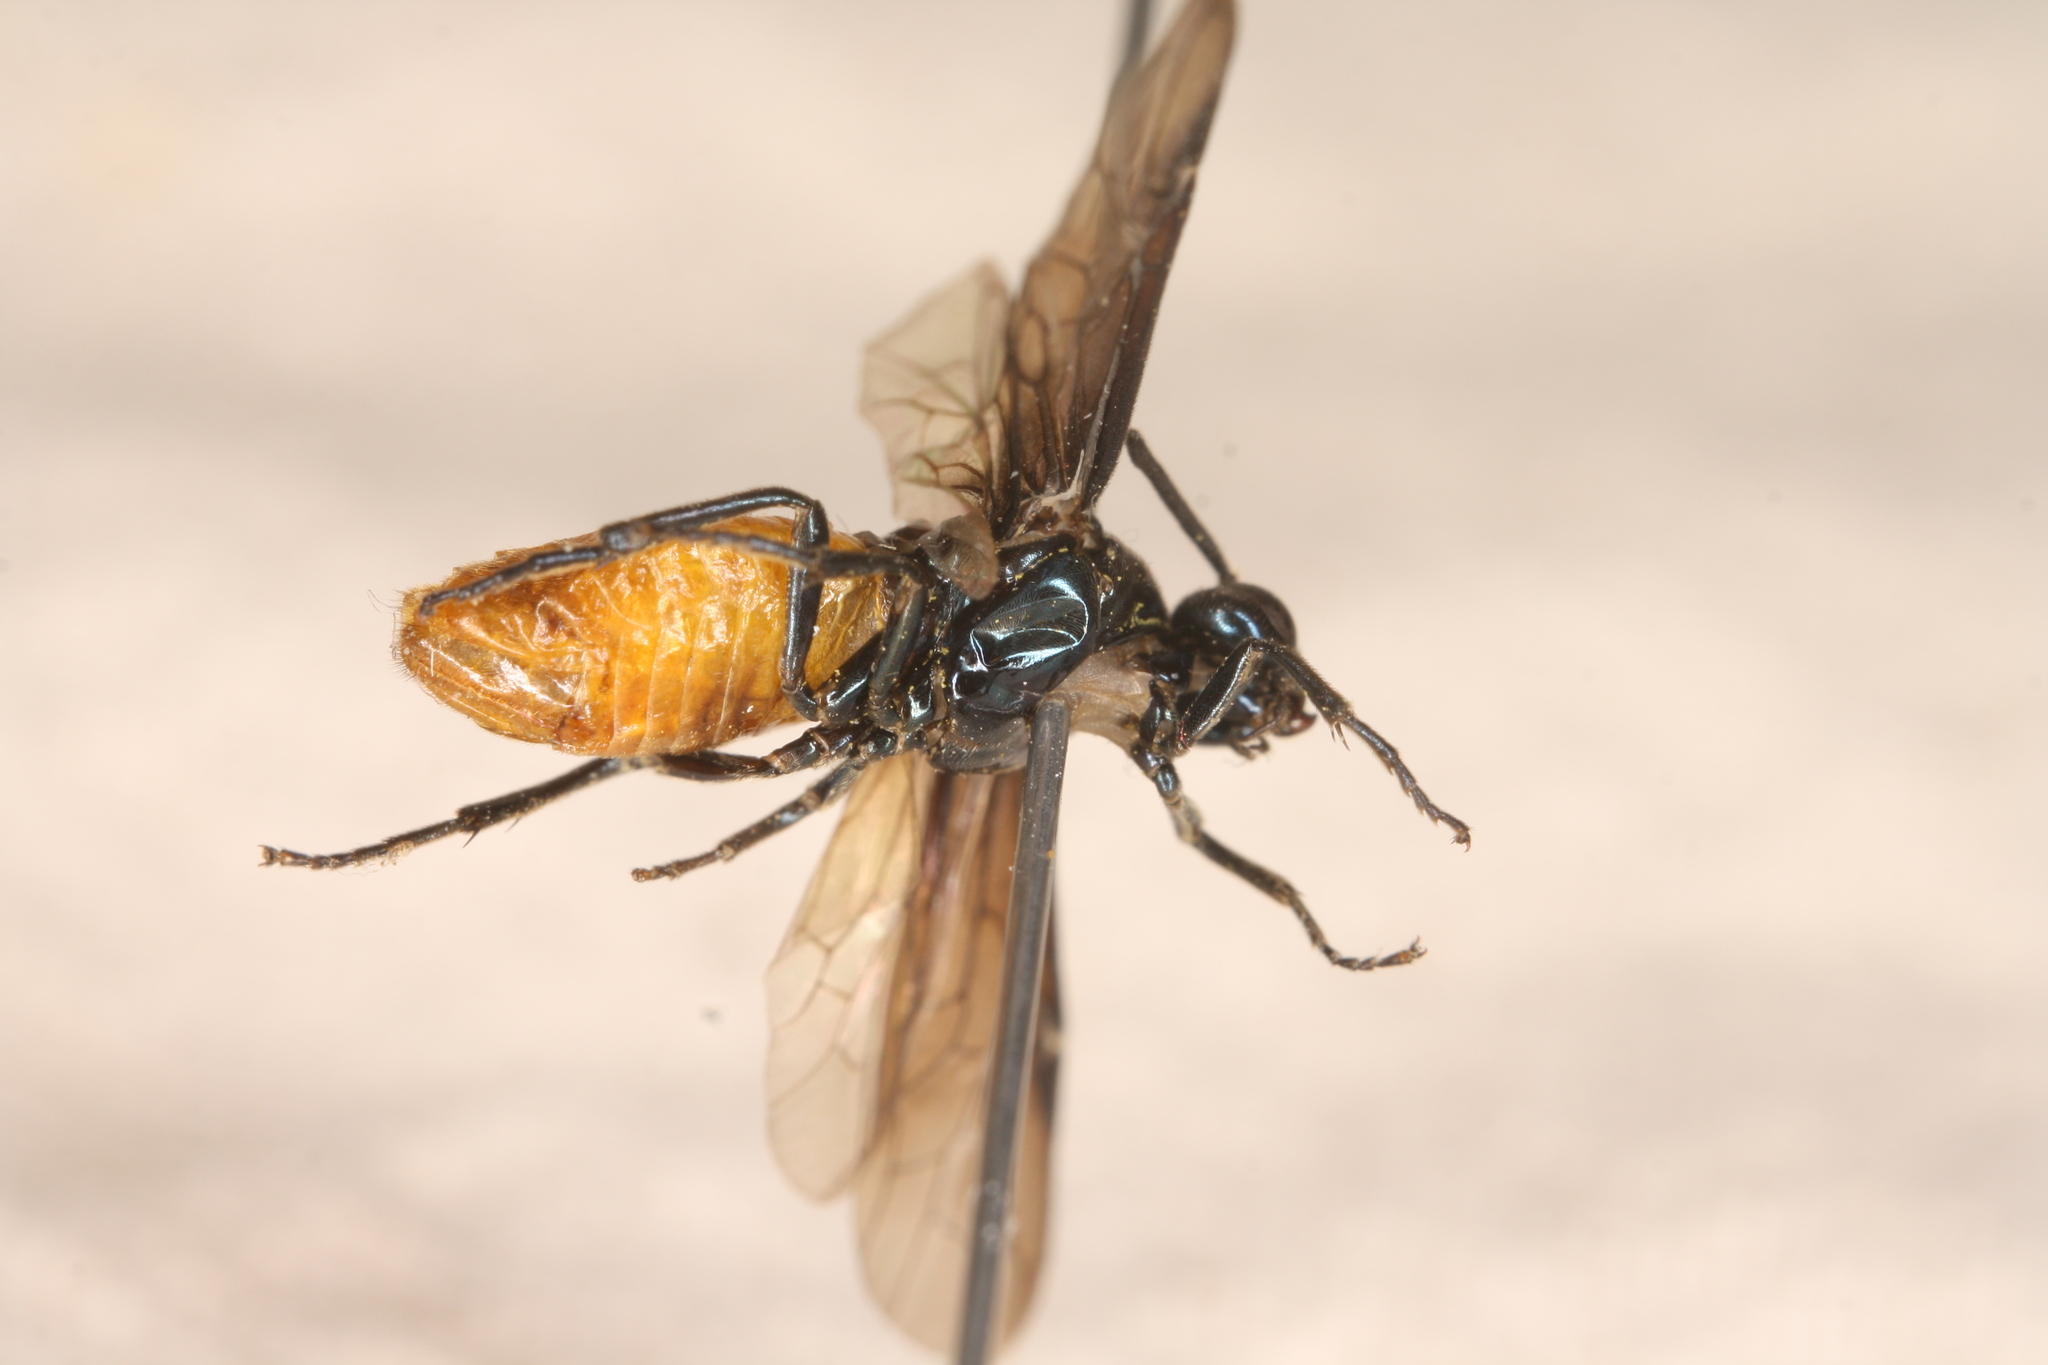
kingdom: Animalia
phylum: Arthropoda
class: Insecta
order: Hymenoptera
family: Argidae
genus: Arge
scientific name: Arge pagana
